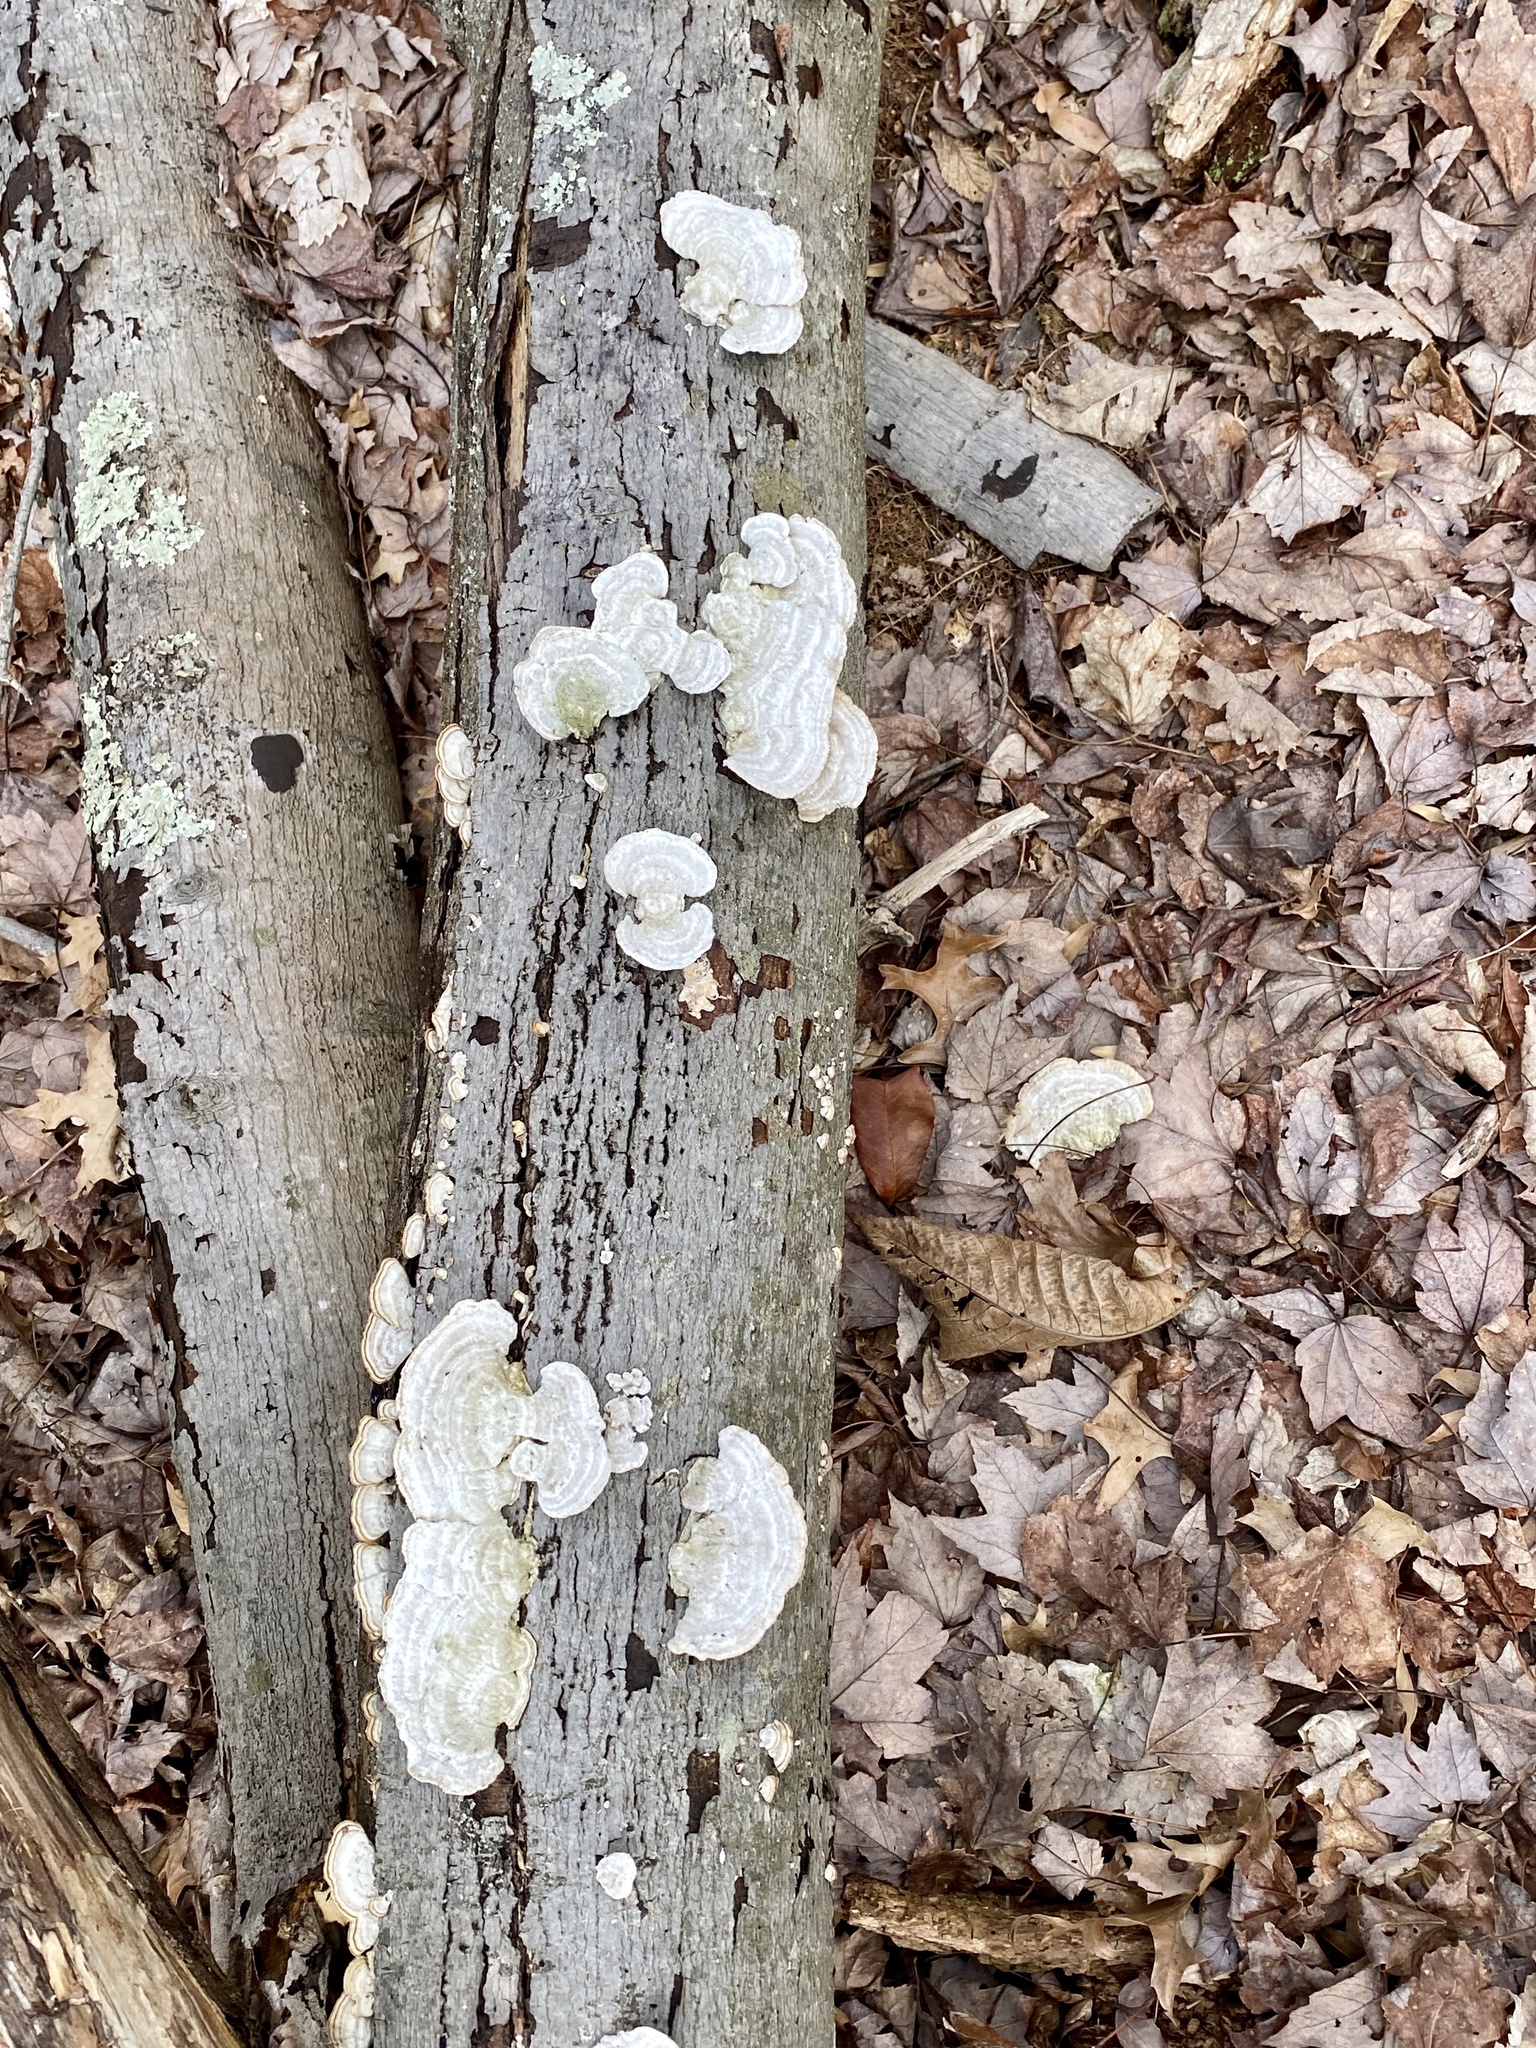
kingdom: Fungi
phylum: Basidiomycota
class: Agaricomycetes
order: Russulales
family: Stereaceae
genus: Stereum
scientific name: Stereum hirsutum
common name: Hairy curtain crust
